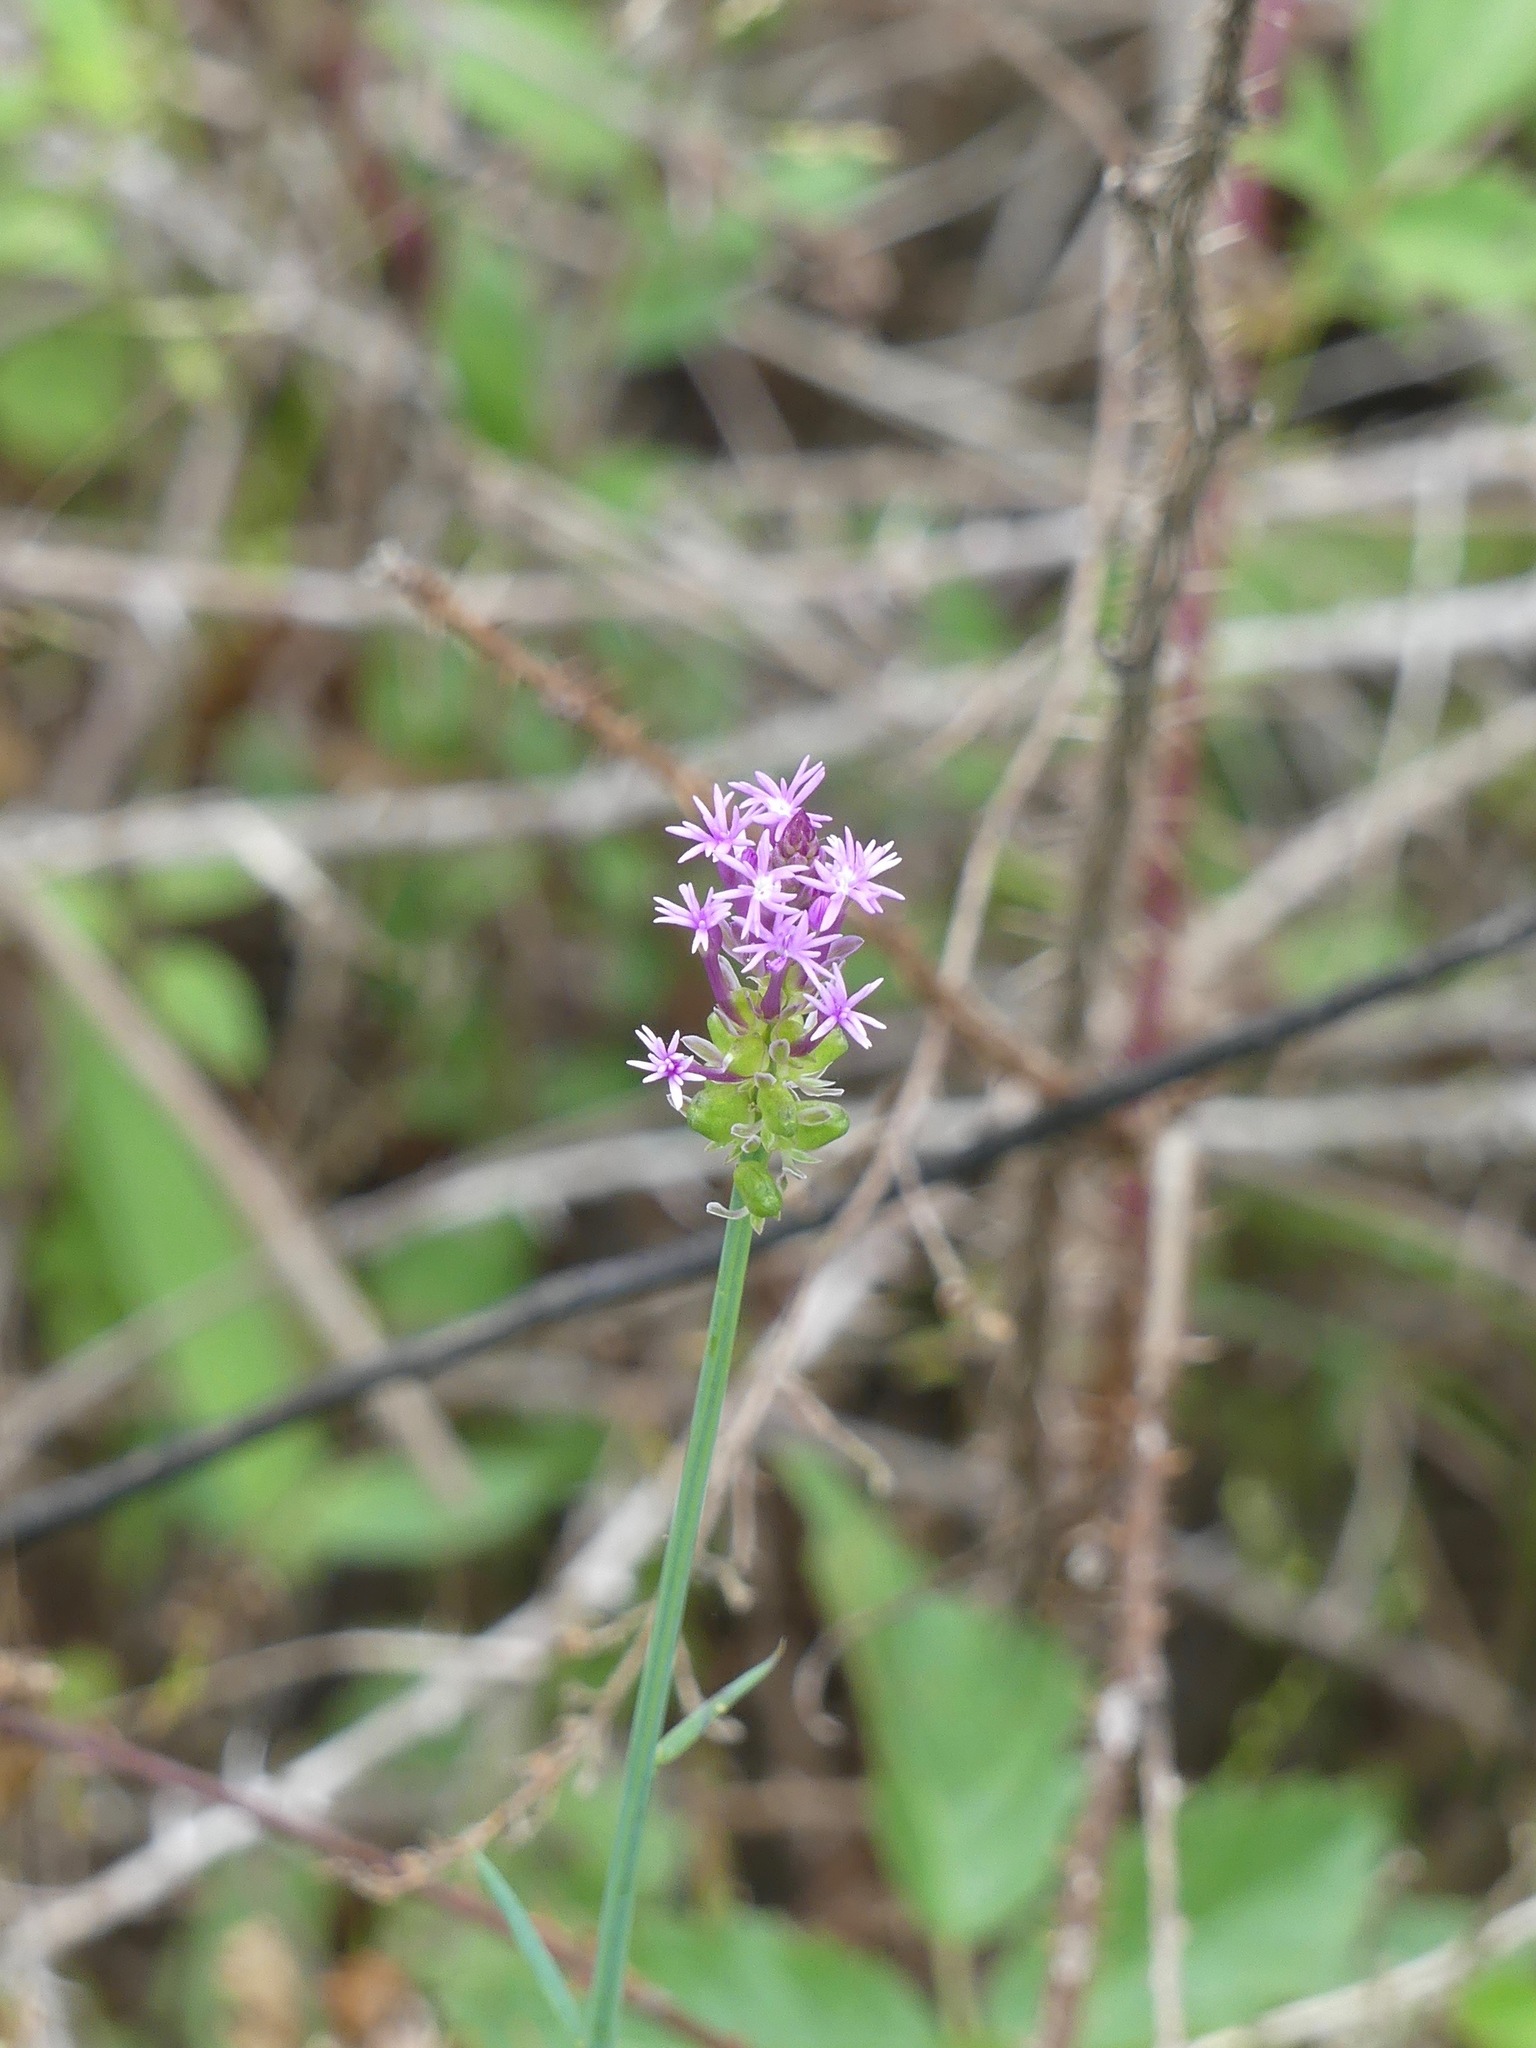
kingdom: Plantae
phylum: Tracheophyta
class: Magnoliopsida
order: Fabales
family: Polygalaceae
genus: Polygala
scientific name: Polygala incarnata
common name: Pink milkwort
